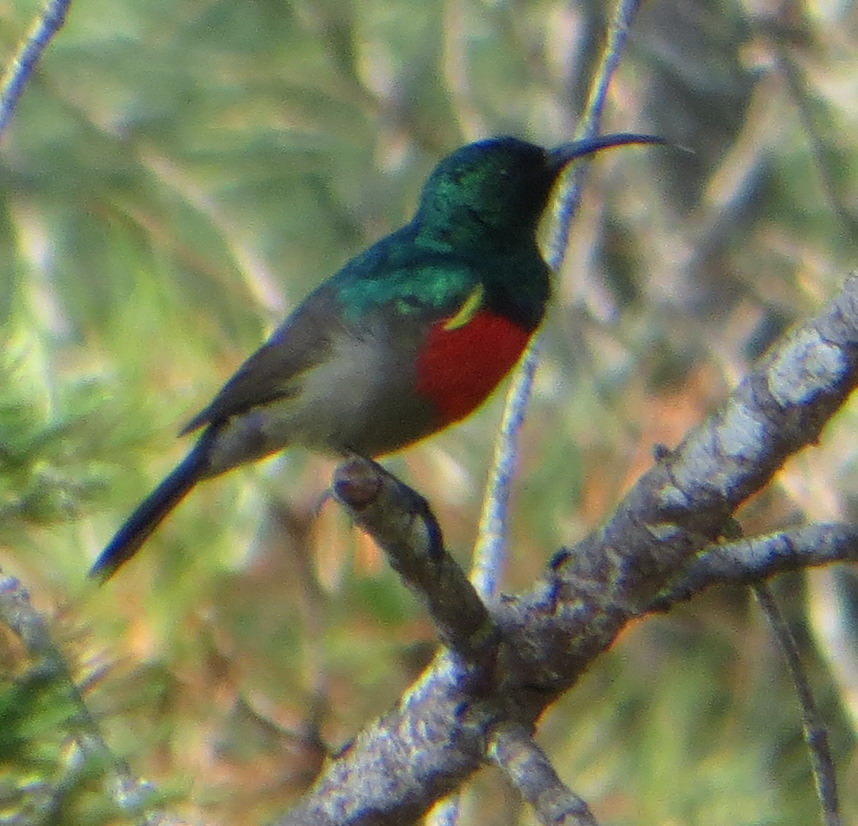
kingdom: Animalia
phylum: Chordata
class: Aves
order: Passeriformes
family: Nectariniidae
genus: Cinnyris
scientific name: Cinnyris afer
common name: Greater double-collared sunbird
